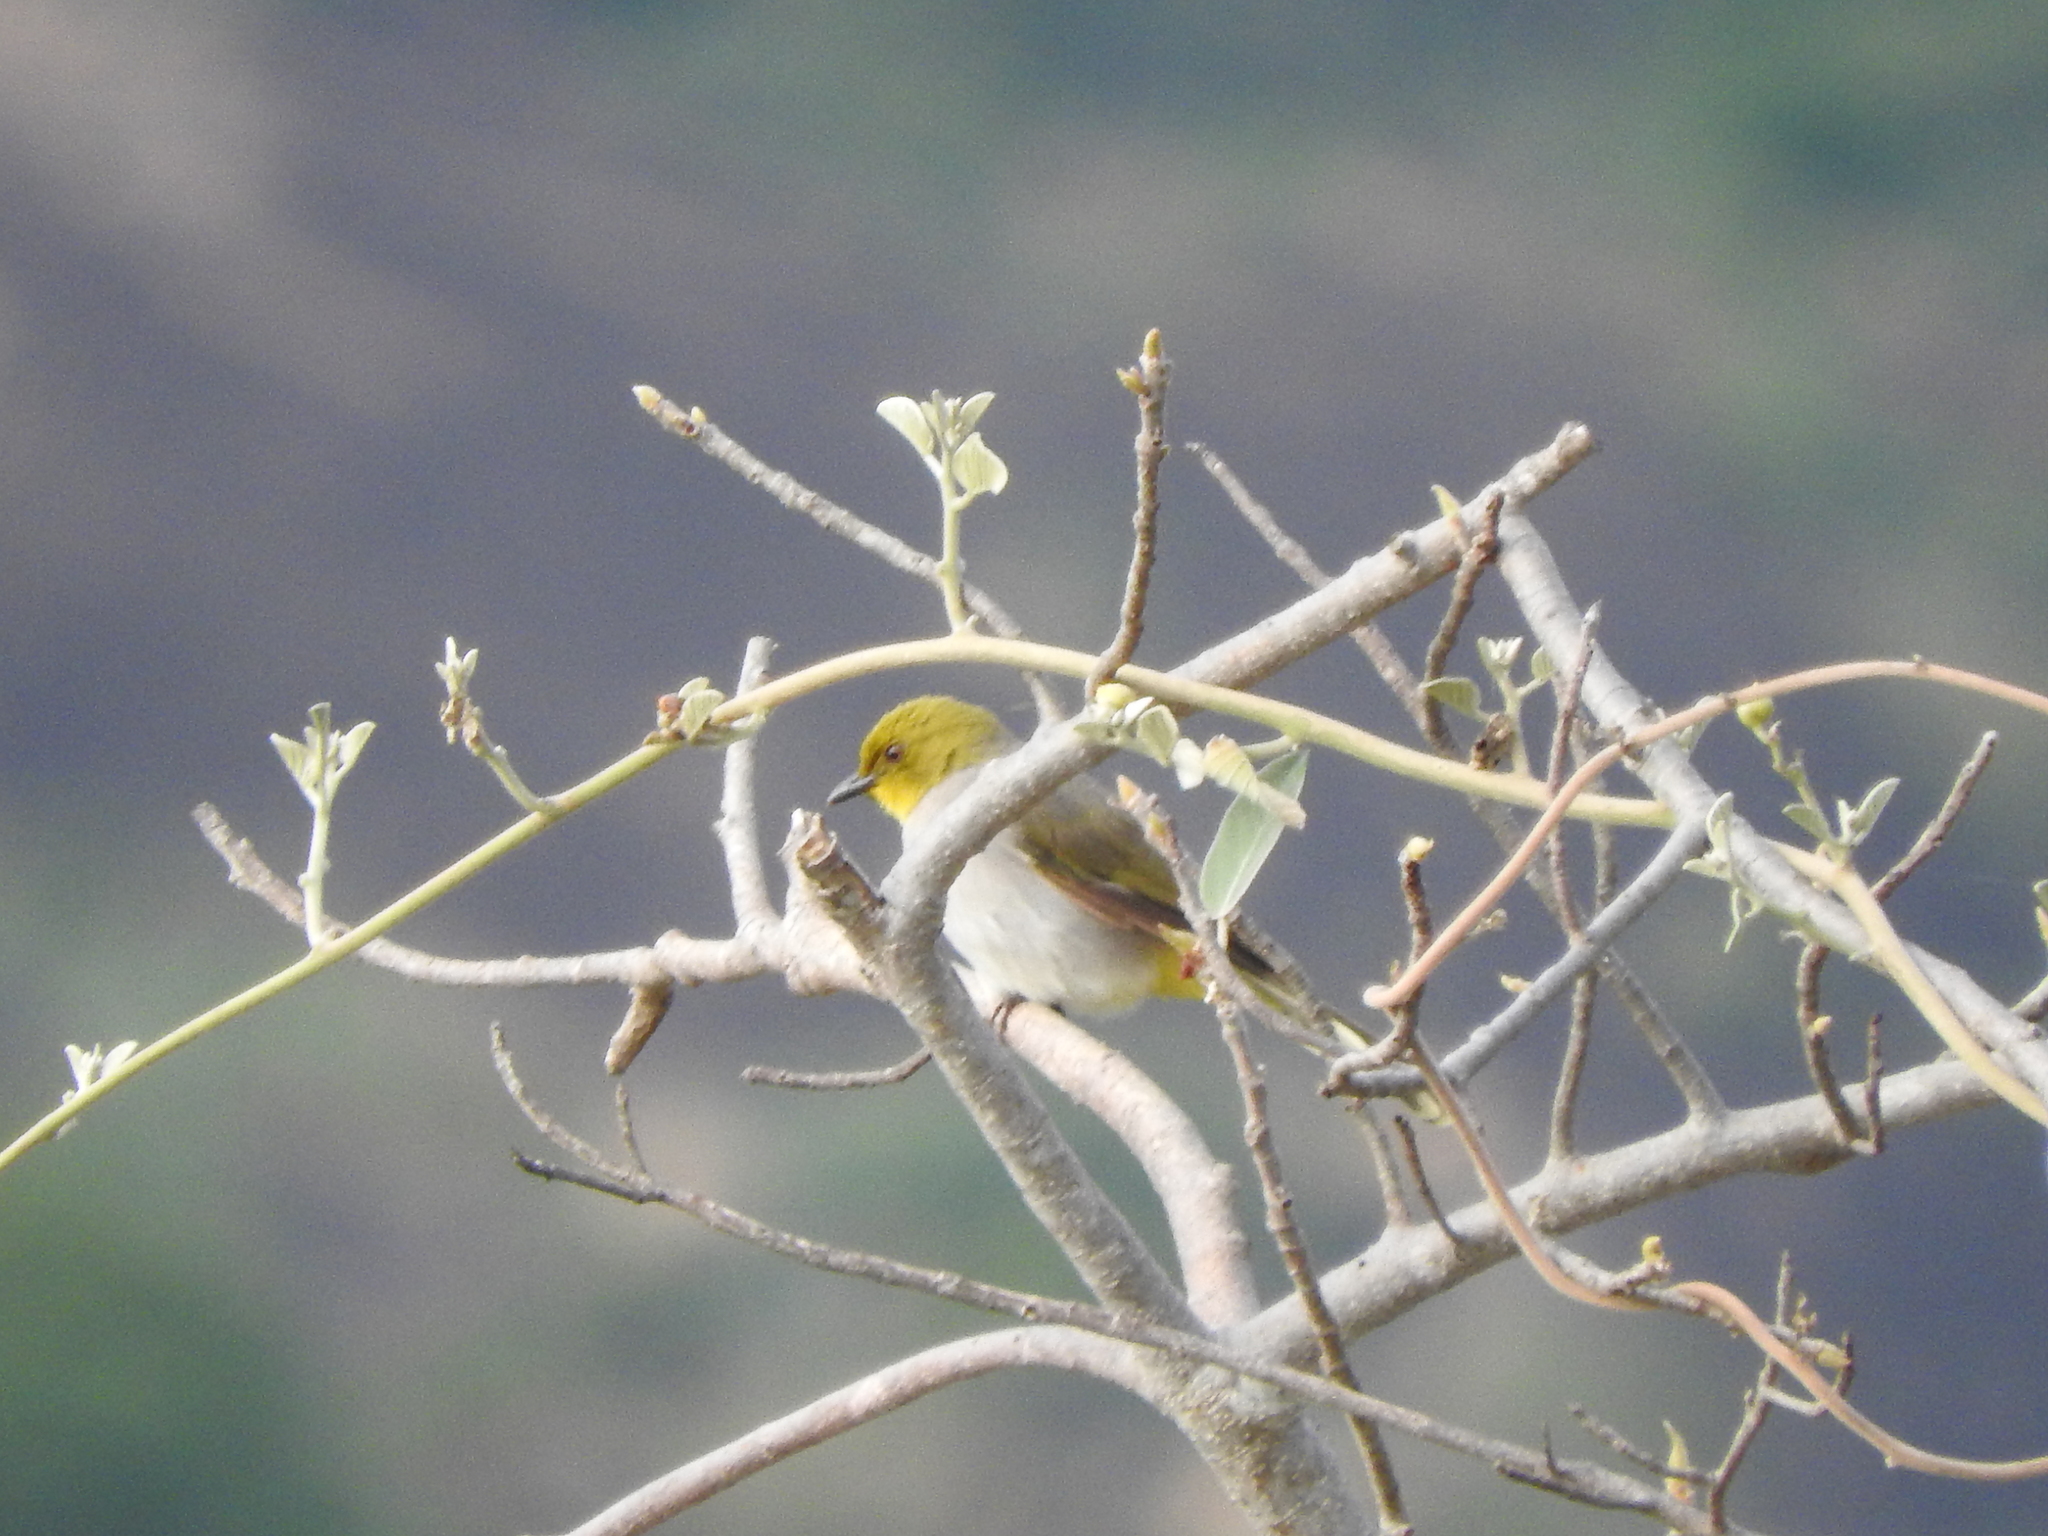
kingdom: Animalia
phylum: Chordata
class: Aves
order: Passeriformes
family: Pycnonotidae
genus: Pycnonotus
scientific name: Pycnonotus xantholaemus
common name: Yellow-throated bulbul
